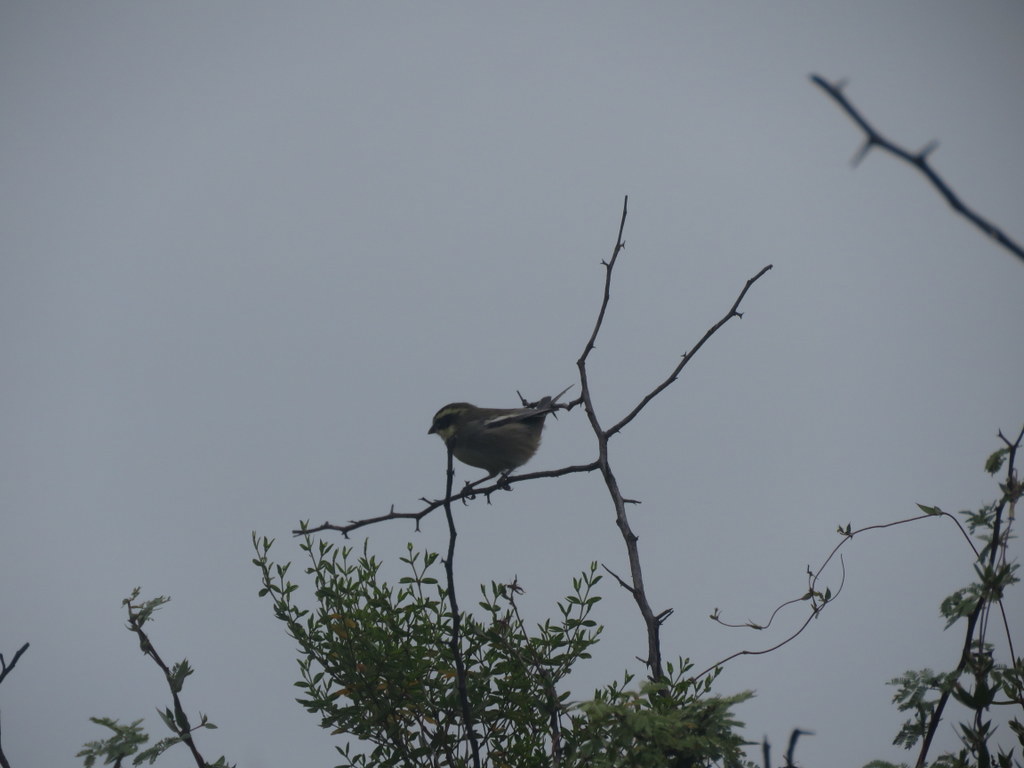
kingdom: Animalia
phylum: Chordata
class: Aves
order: Passeriformes
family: Thraupidae
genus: Microspingus
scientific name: Microspingus torquatus
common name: Ringed warbling-finch
